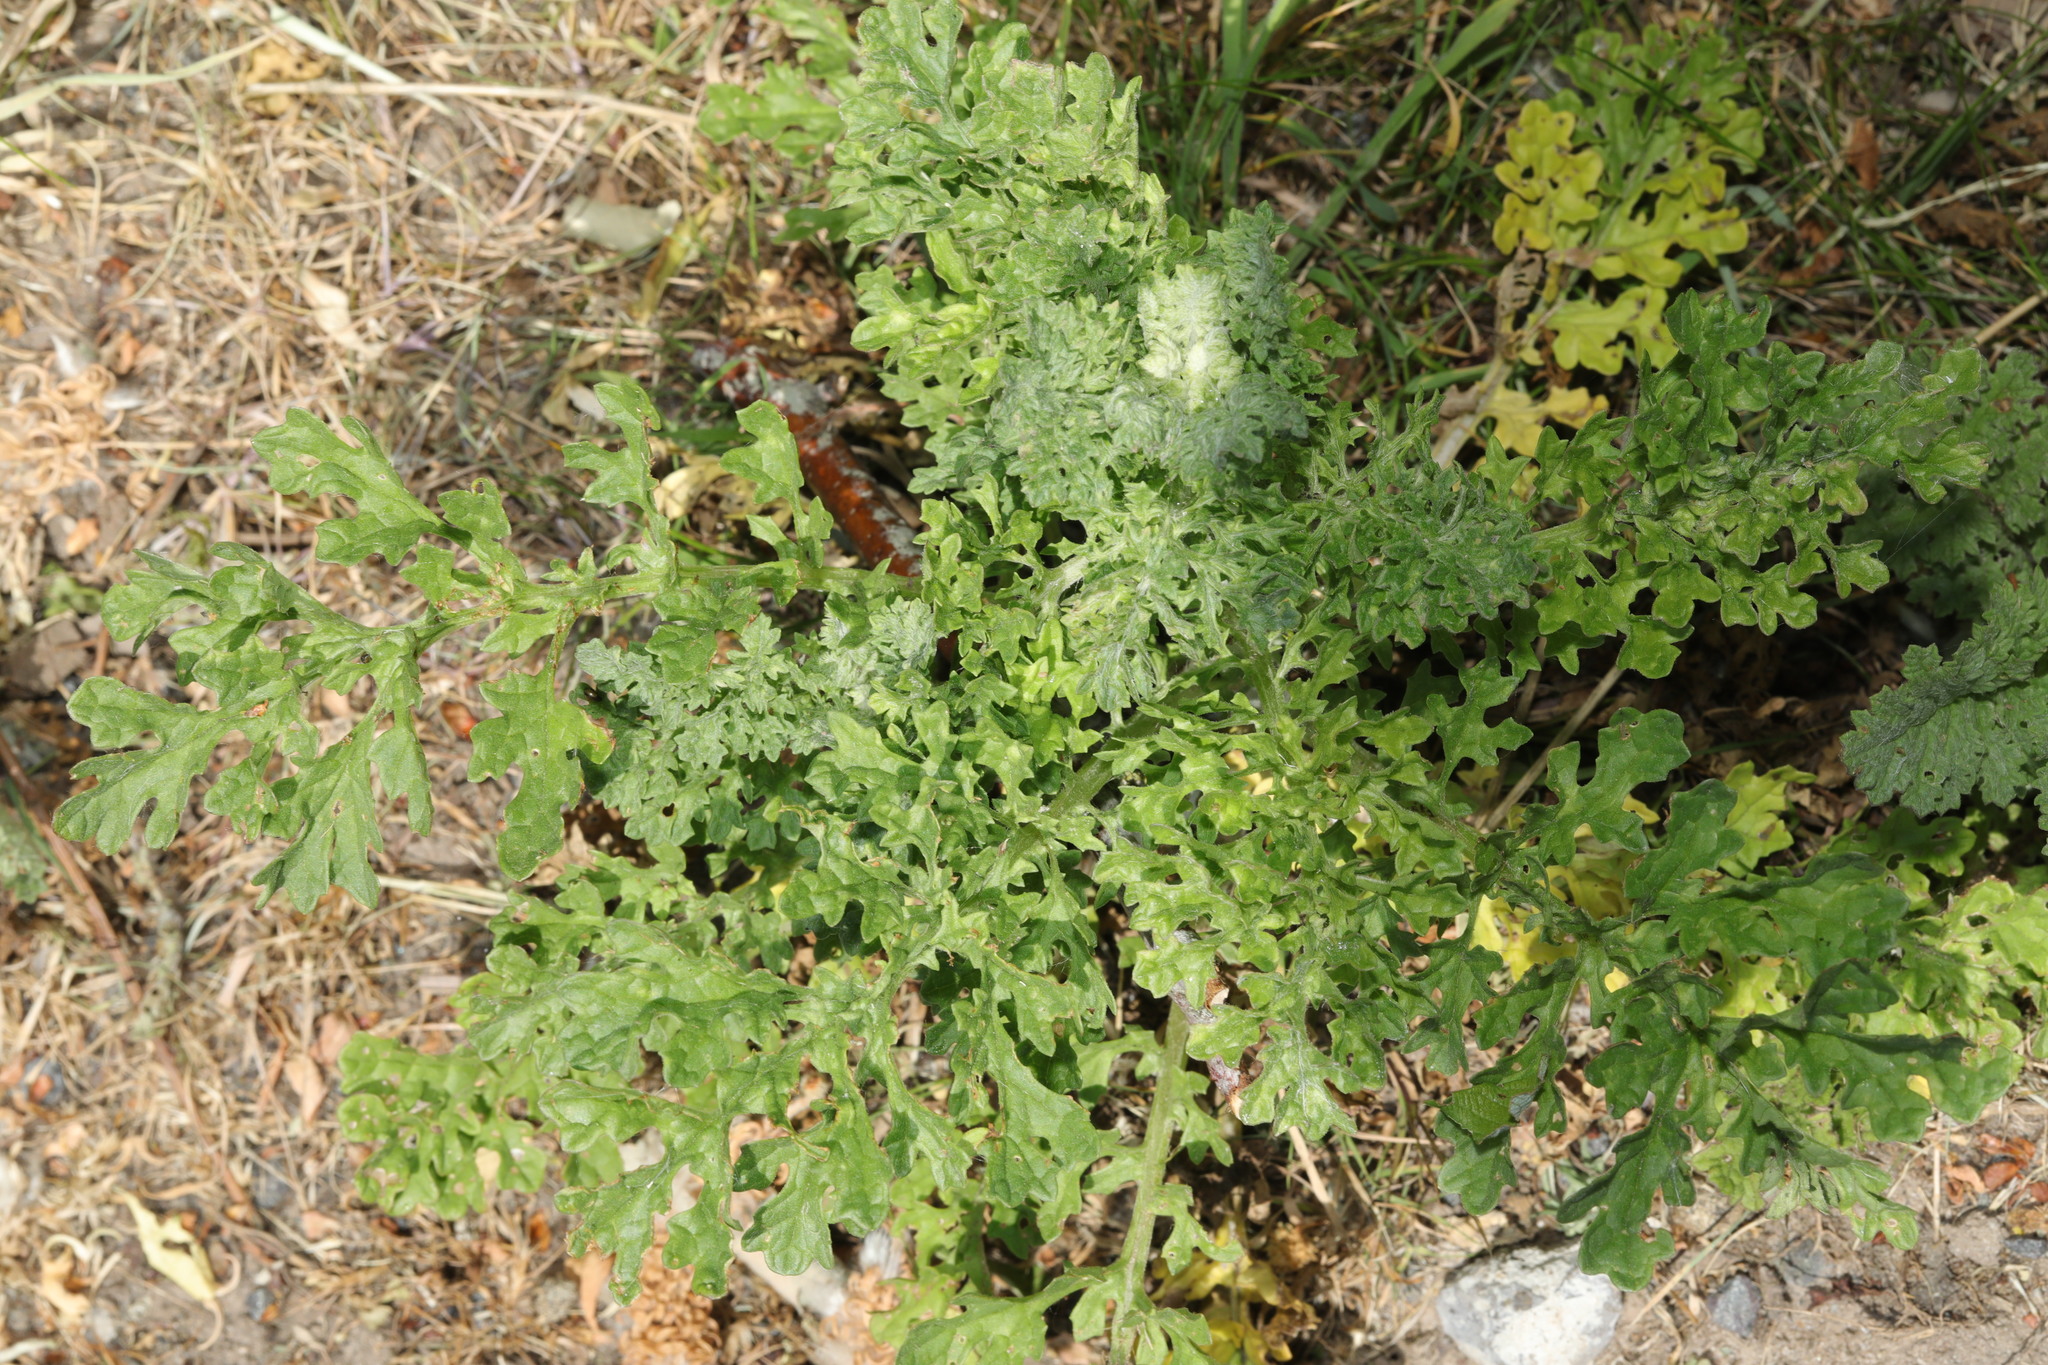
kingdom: Plantae
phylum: Tracheophyta
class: Magnoliopsida
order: Asterales
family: Asteraceae
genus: Jacobaea
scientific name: Jacobaea vulgaris
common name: Stinking willie
